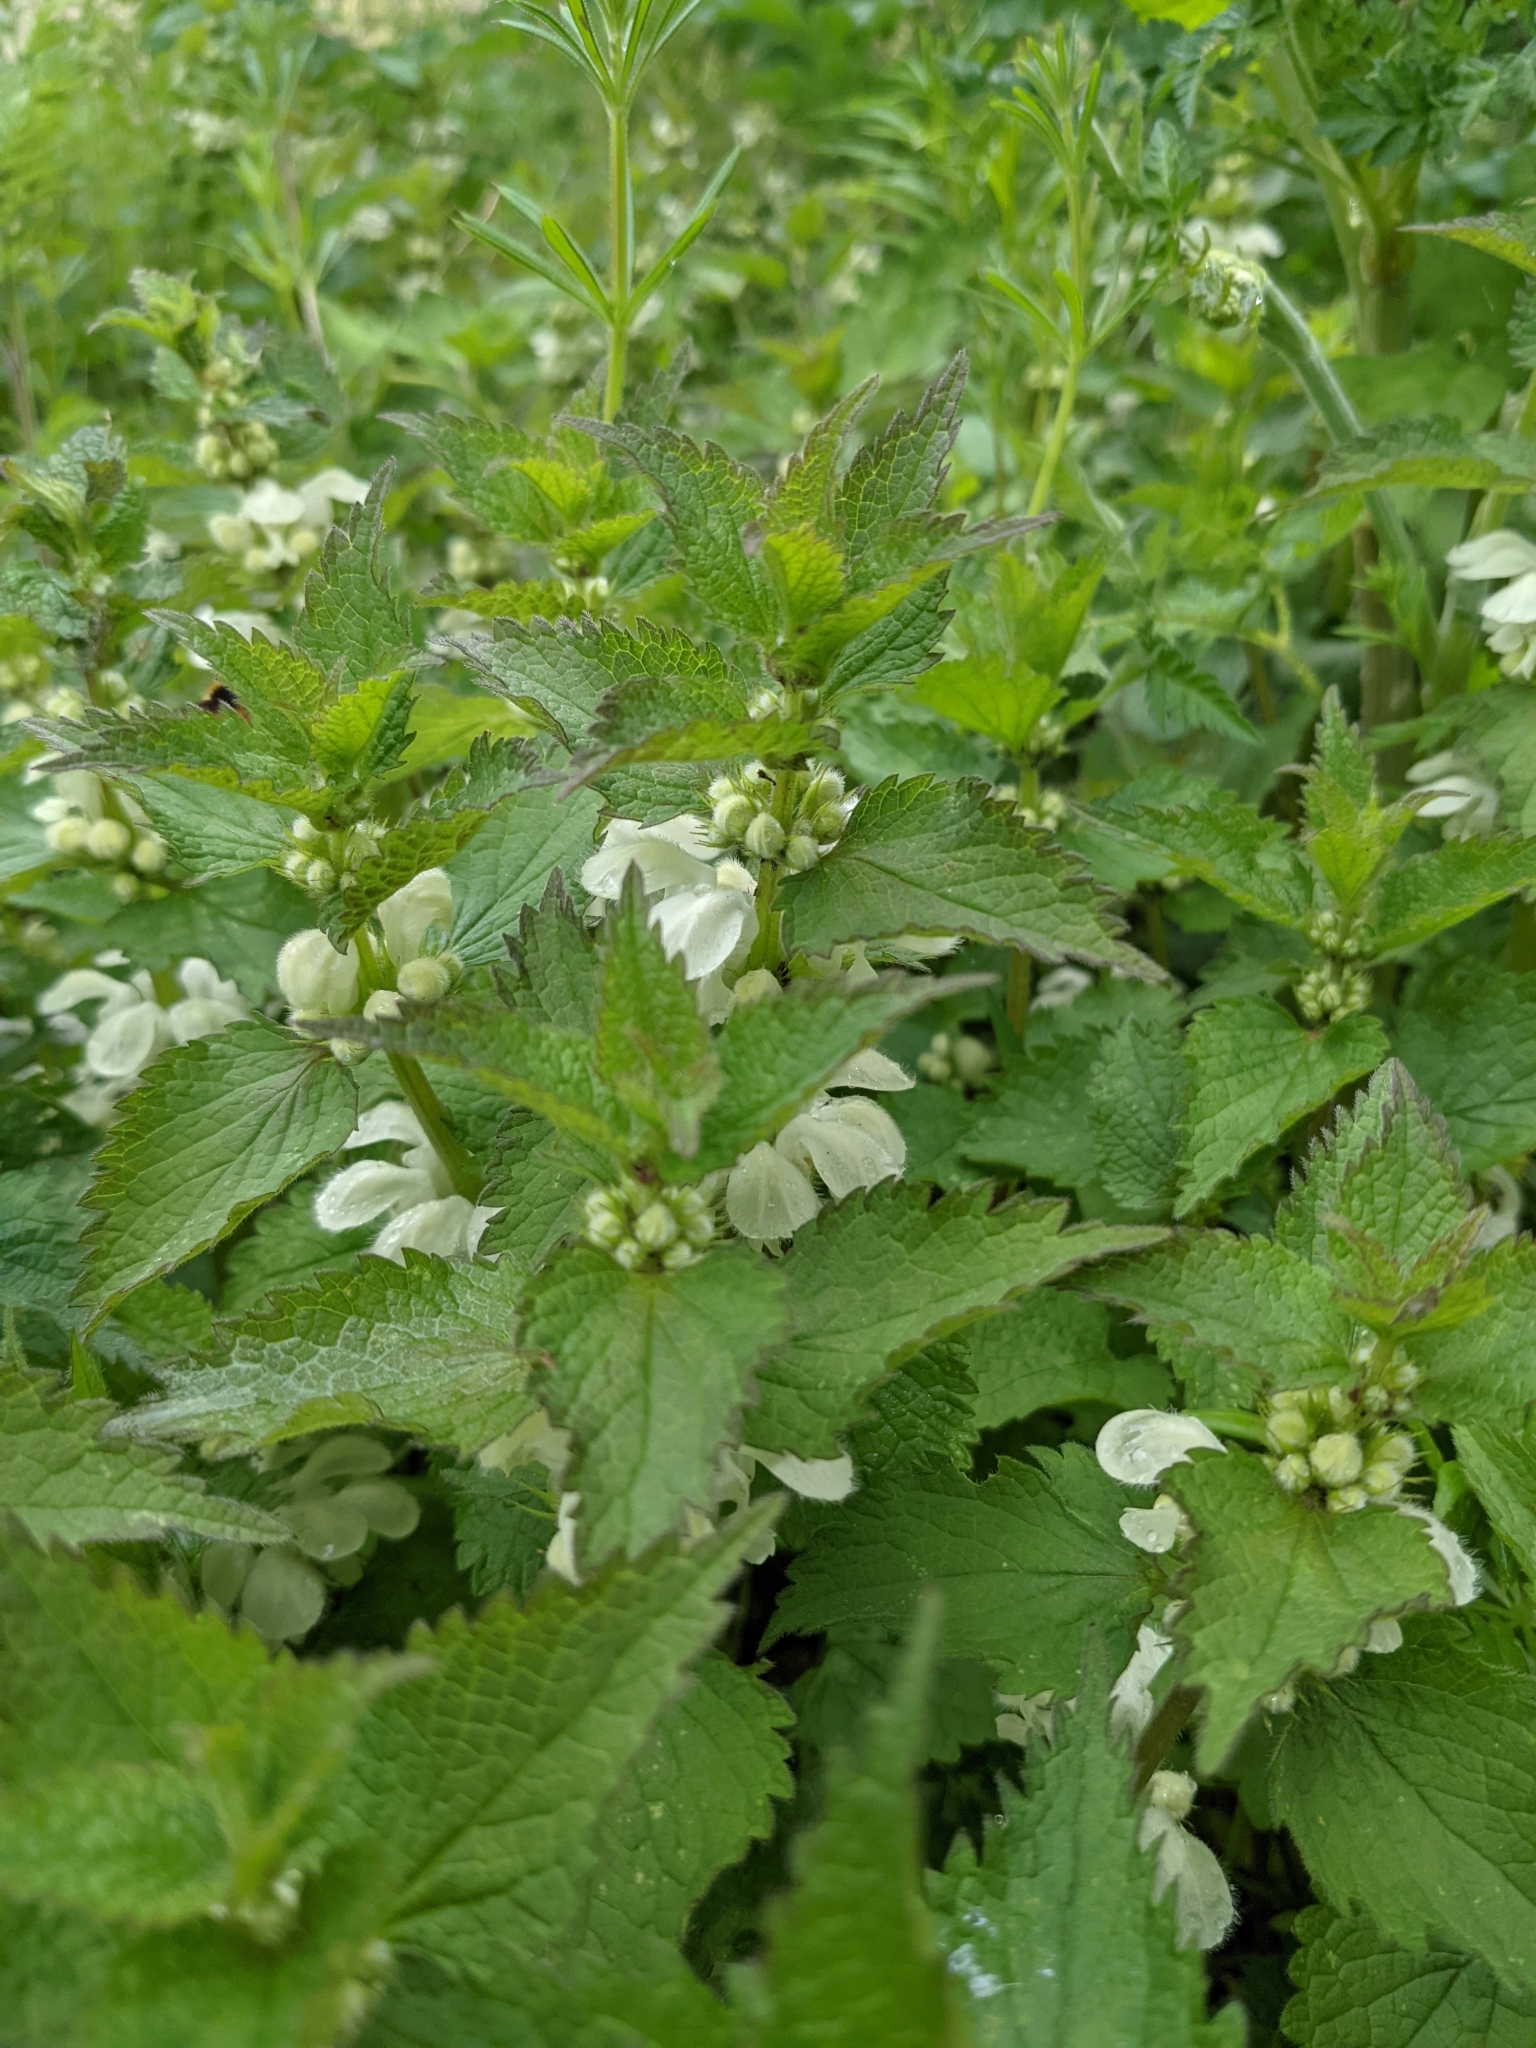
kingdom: Plantae
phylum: Tracheophyta
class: Magnoliopsida
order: Lamiales
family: Lamiaceae
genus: Lamium
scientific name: Lamium album
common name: White dead-nettle
